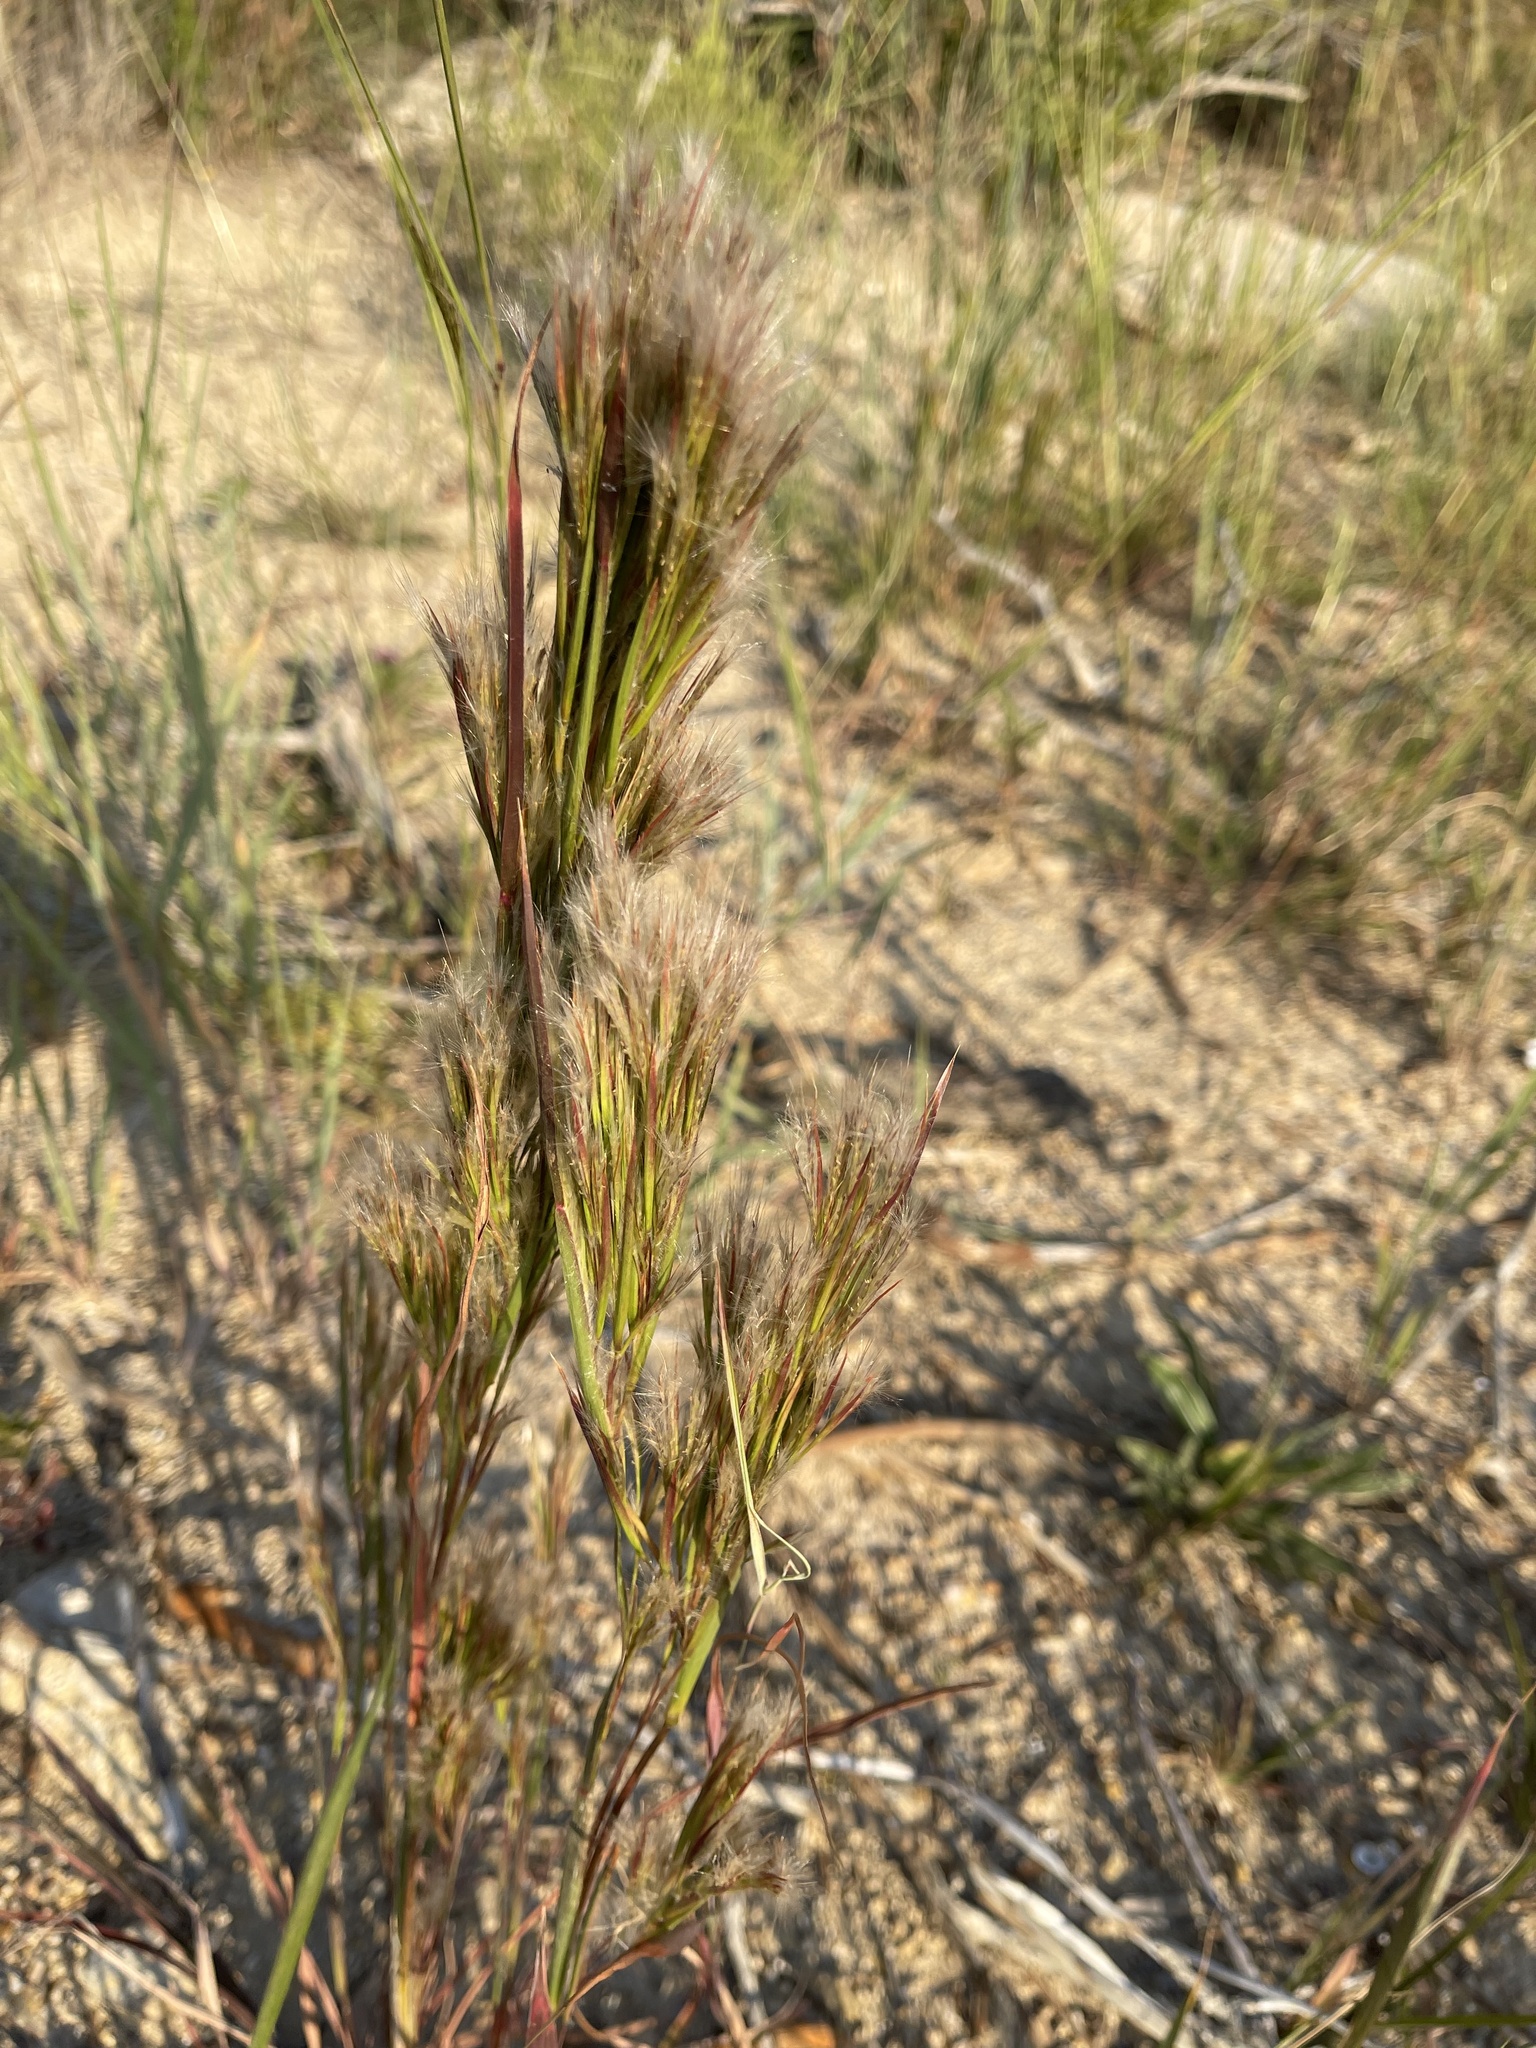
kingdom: Plantae
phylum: Tracheophyta
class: Liliopsida
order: Poales
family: Poaceae
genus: Andropogon
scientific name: Andropogon tenuispatheus
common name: Bushy bluestem
